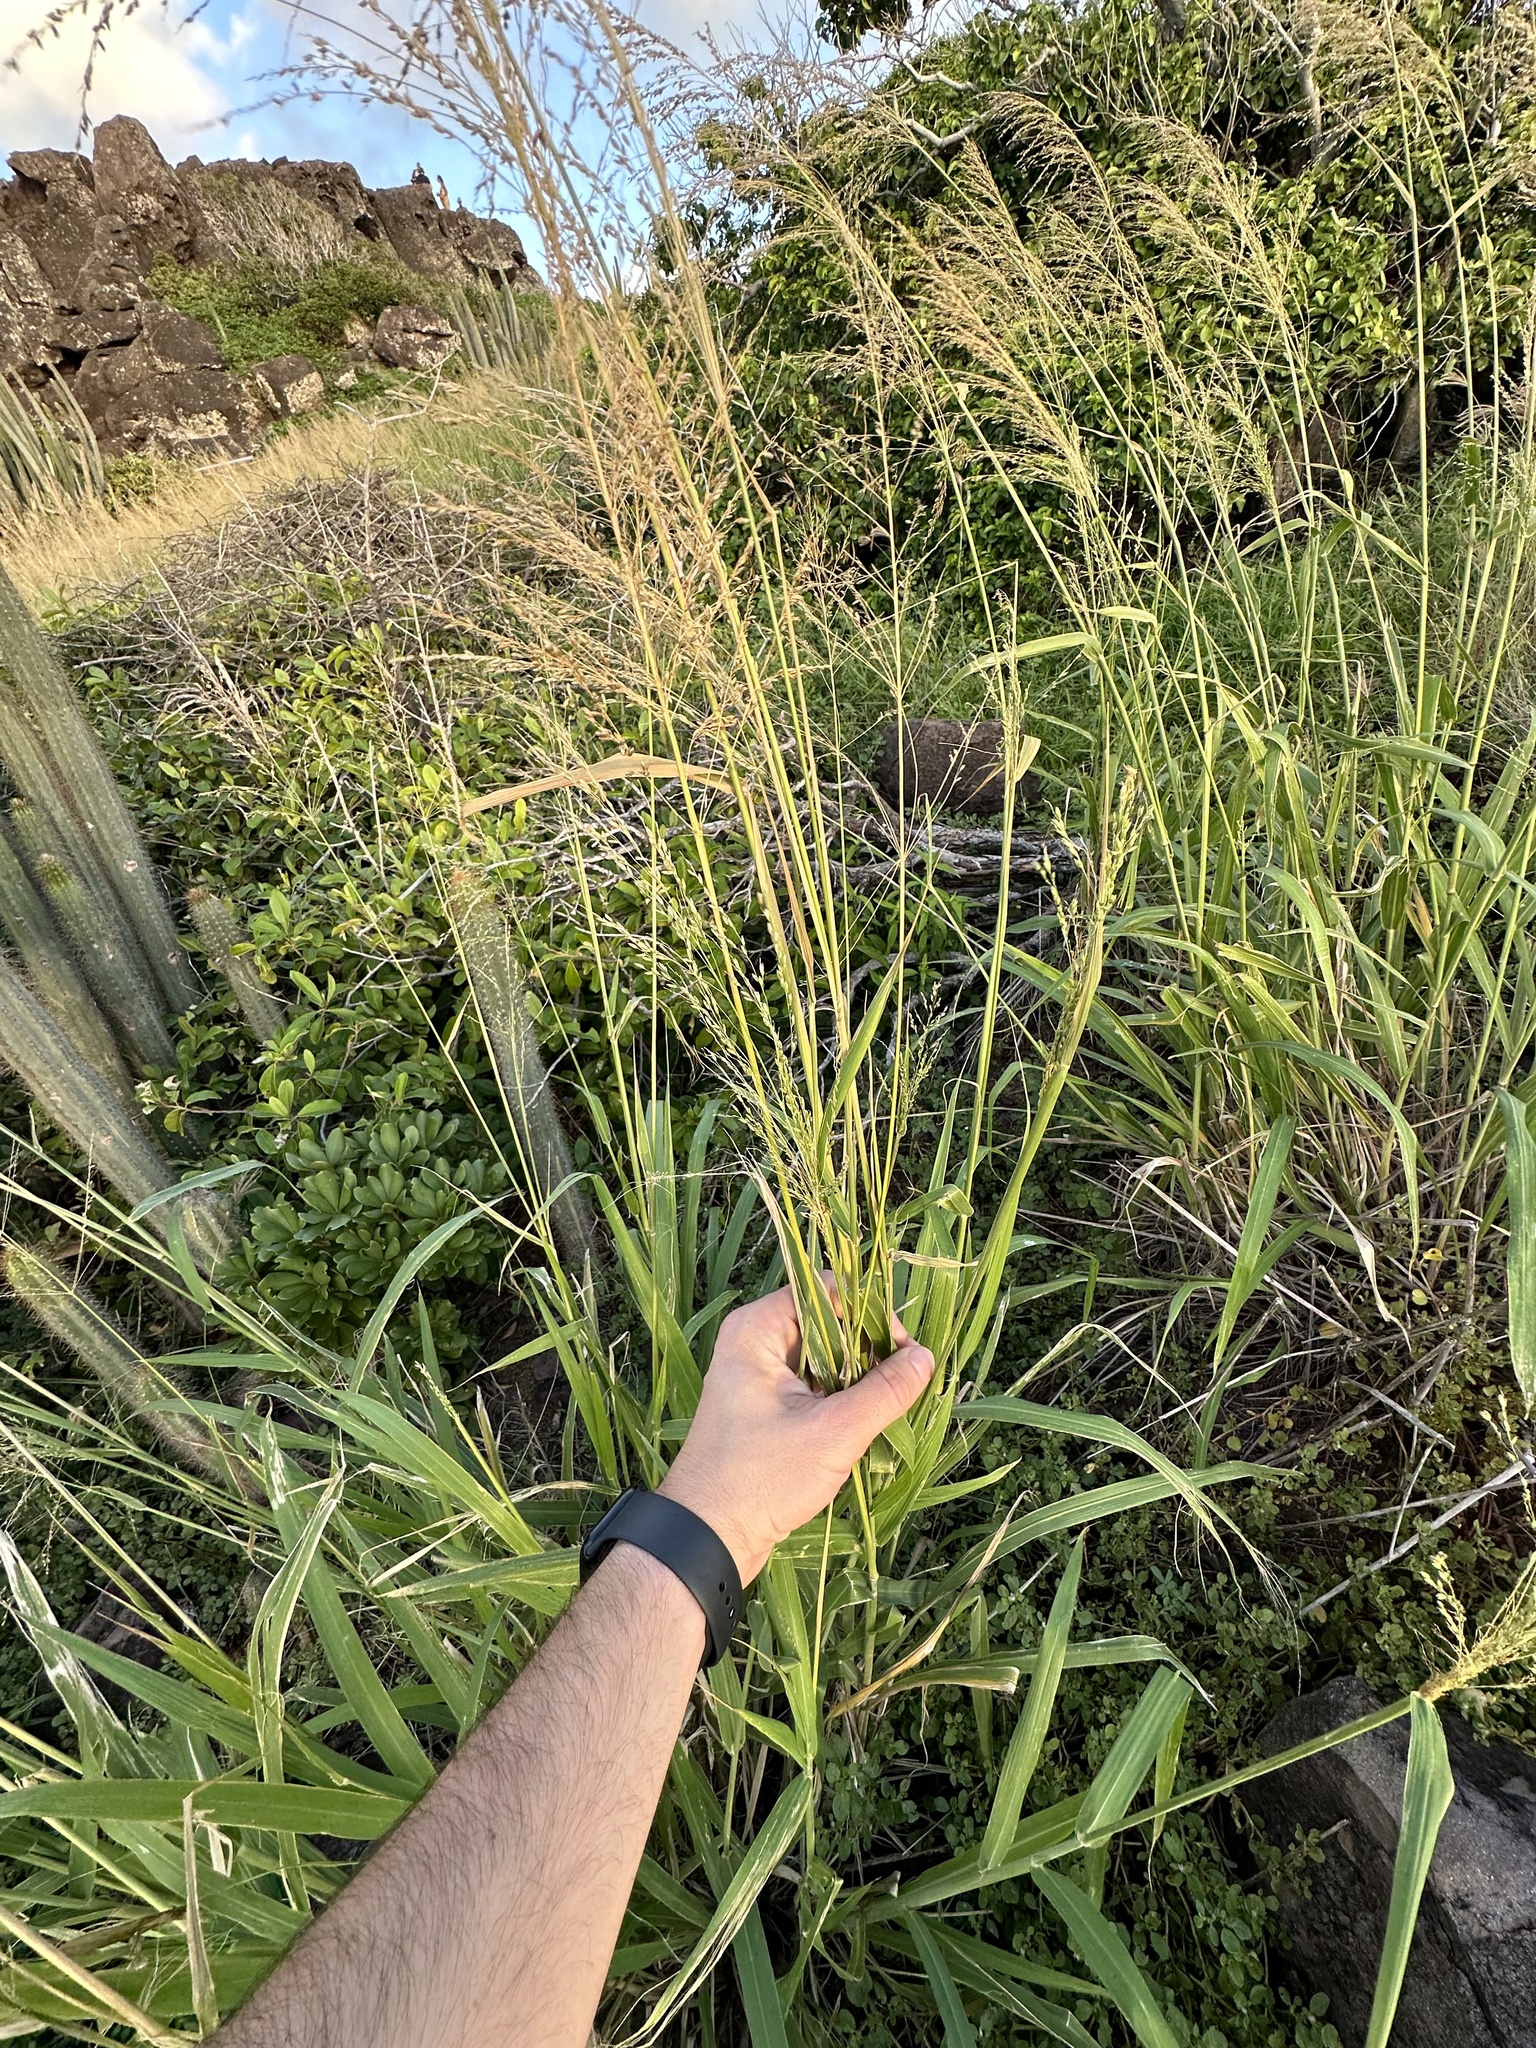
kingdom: Plantae
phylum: Tracheophyta
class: Liliopsida
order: Poales
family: Poaceae
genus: Megathyrsus
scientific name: Megathyrsus maximus
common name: Guineagrass
